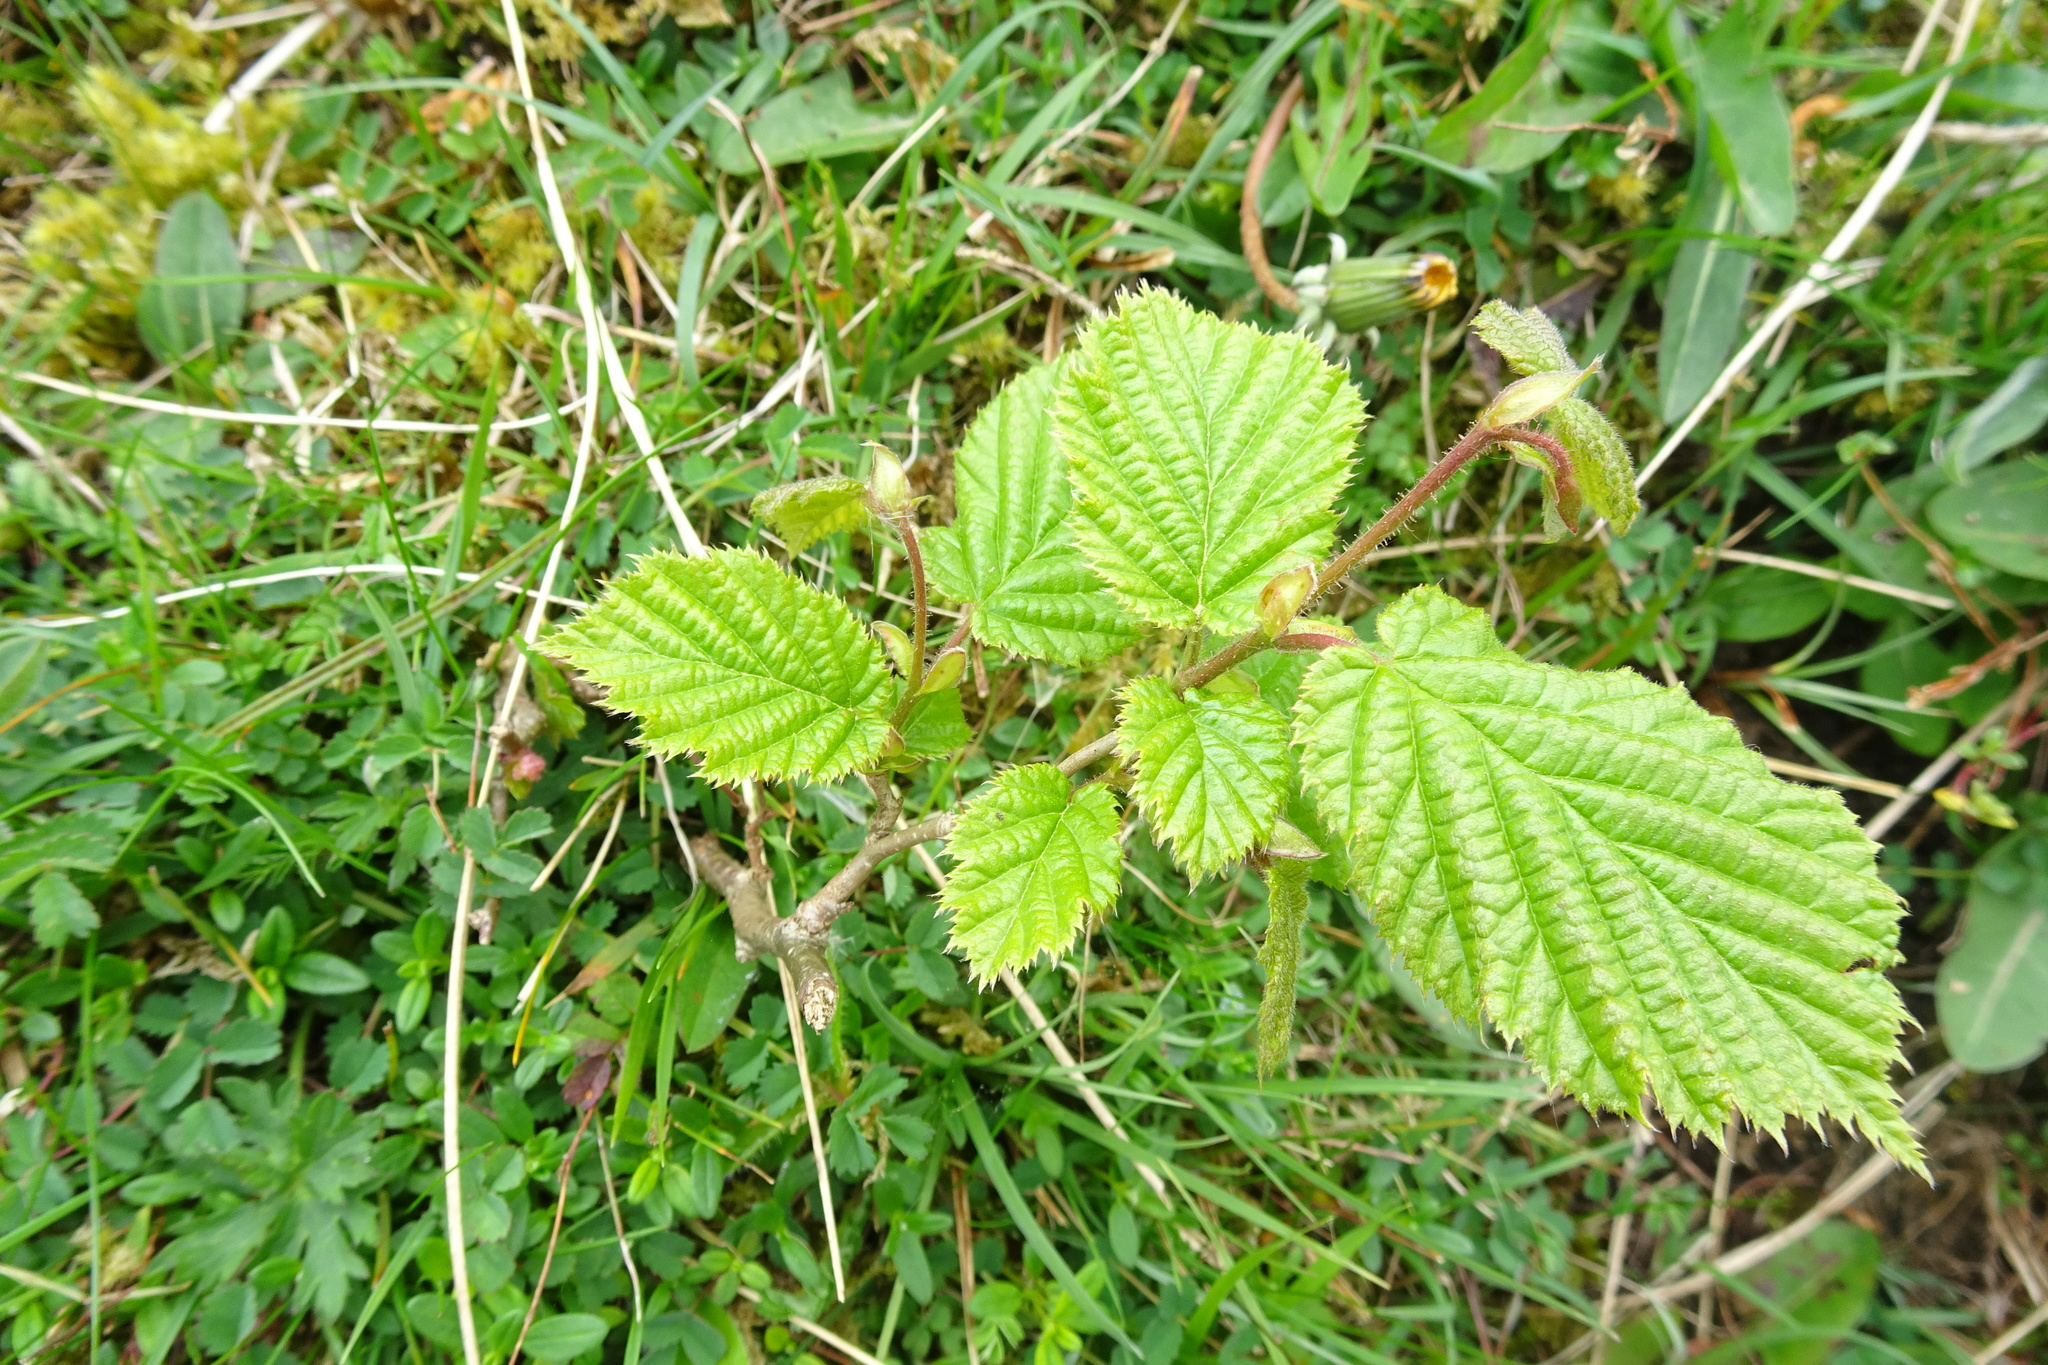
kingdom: Plantae
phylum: Tracheophyta
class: Magnoliopsida
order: Fagales
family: Betulaceae
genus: Corylus
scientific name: Corylus avellana
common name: European hazel
